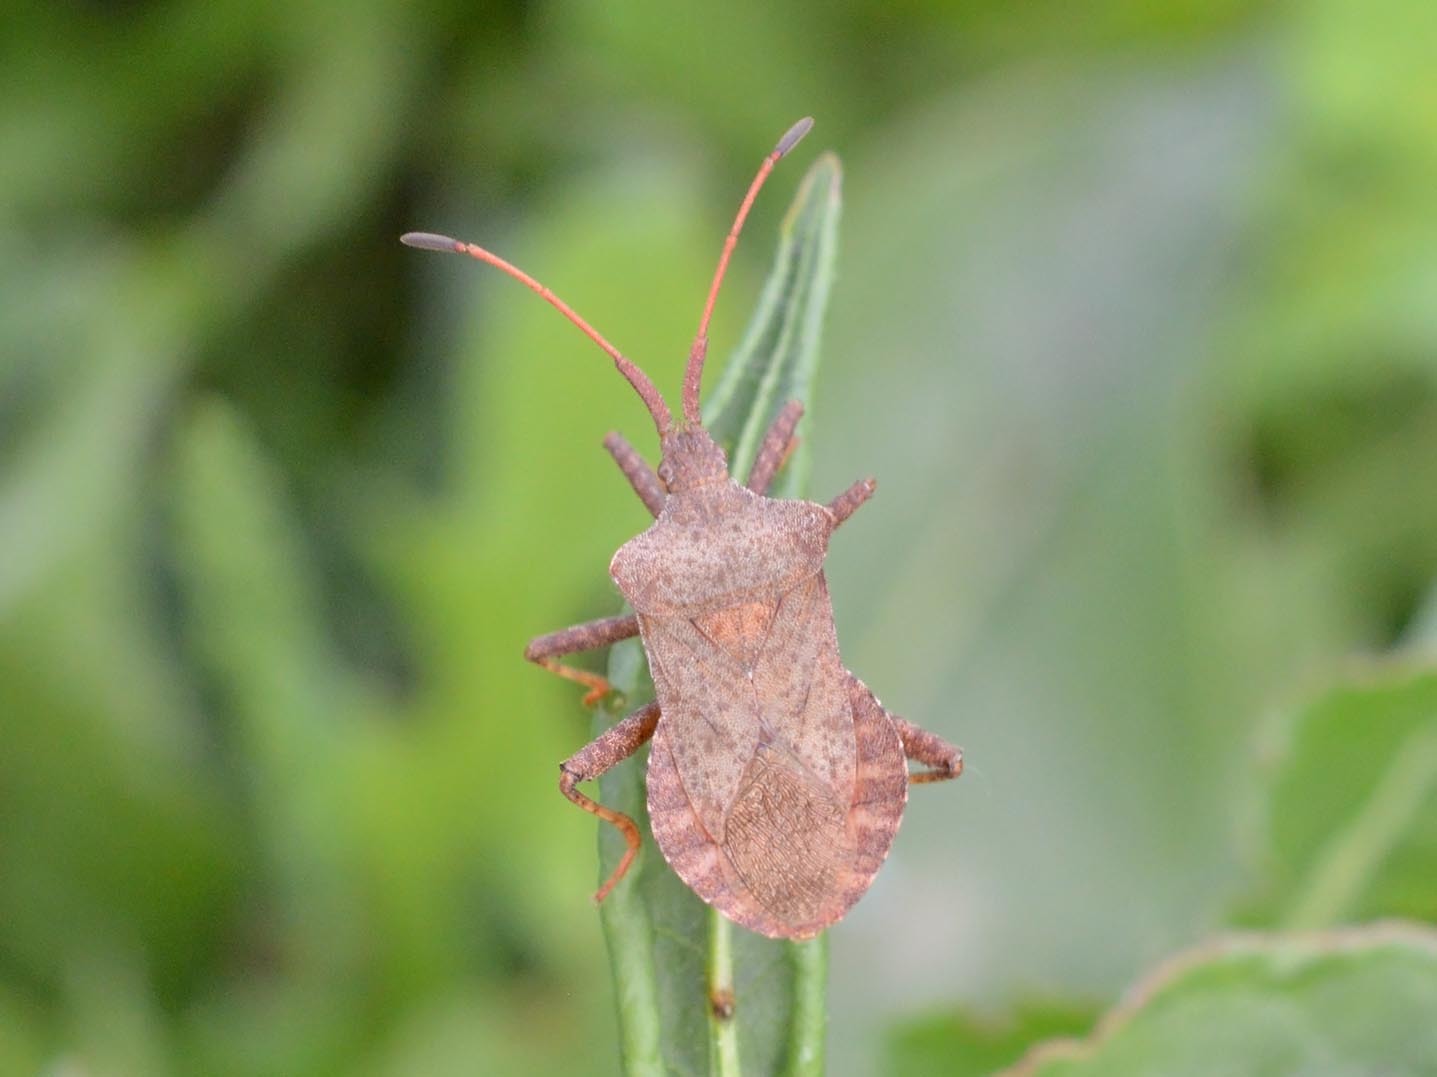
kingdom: Animalia
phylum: Arthropoda
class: Insecta
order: Hemiptera
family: Coreidae
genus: Coreus
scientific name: Coreus marginatus
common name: Dock bug
